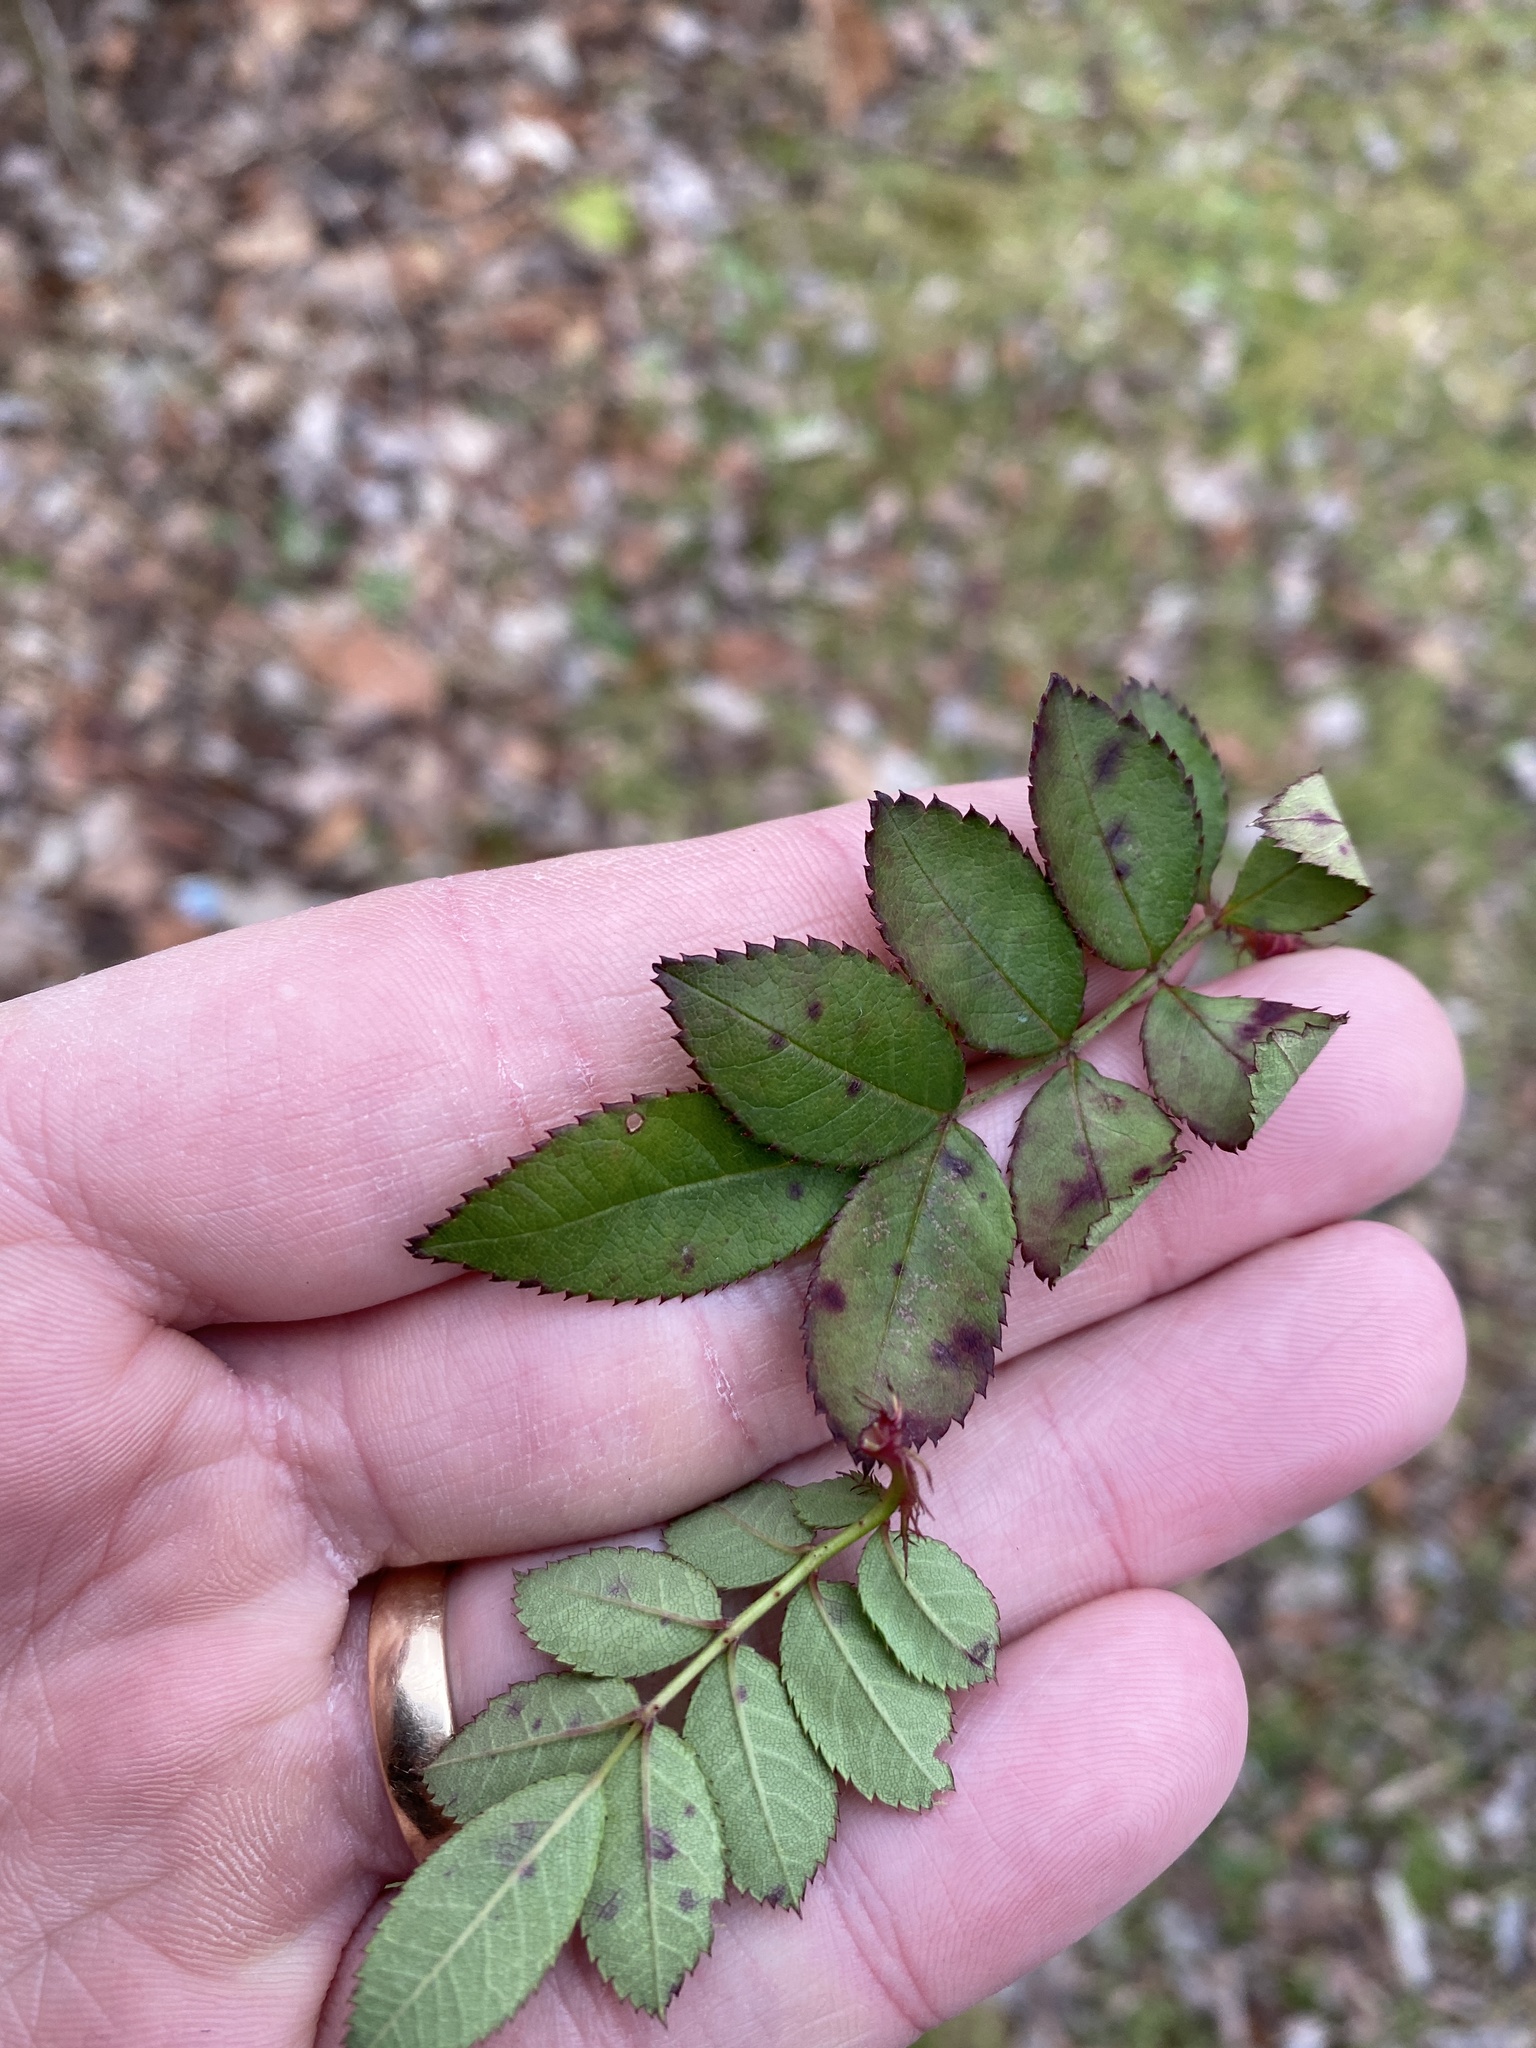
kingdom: Plantae
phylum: Tracheophyta
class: Magnoliopsida
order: Rosales
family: Rosaceae
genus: Rosa
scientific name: Rosa multiflora
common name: Multiflora rose
